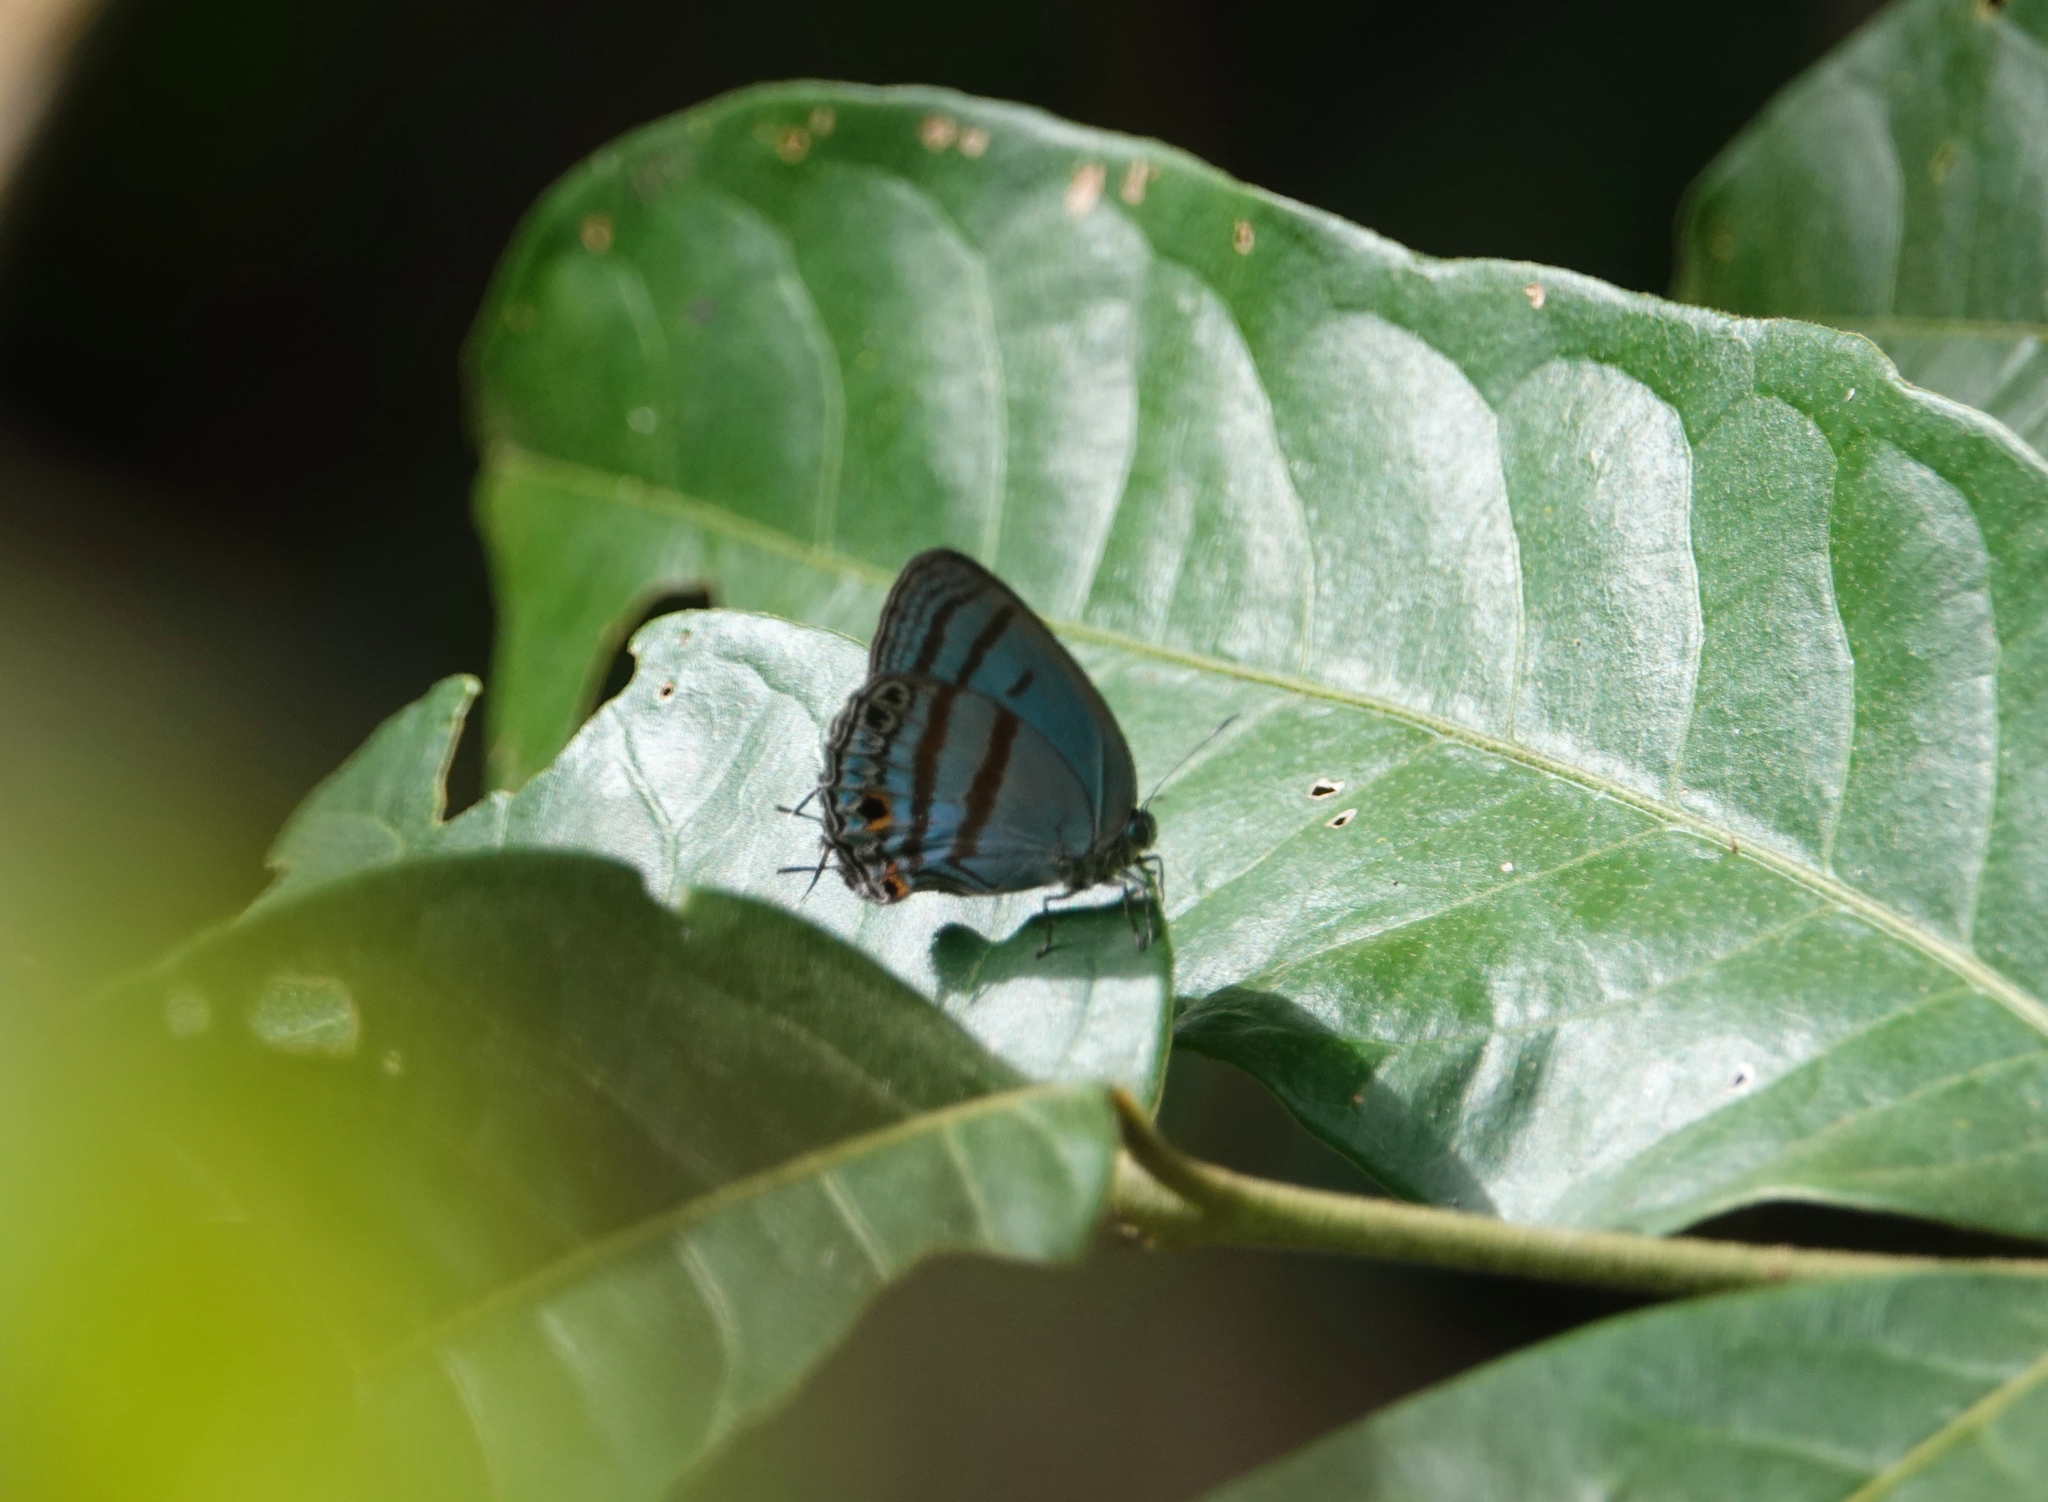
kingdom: Animalia
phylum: Arthropoda
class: Insecta
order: Lepidoptera
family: Lycaenidae
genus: Macusia
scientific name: Macusia satyroides
